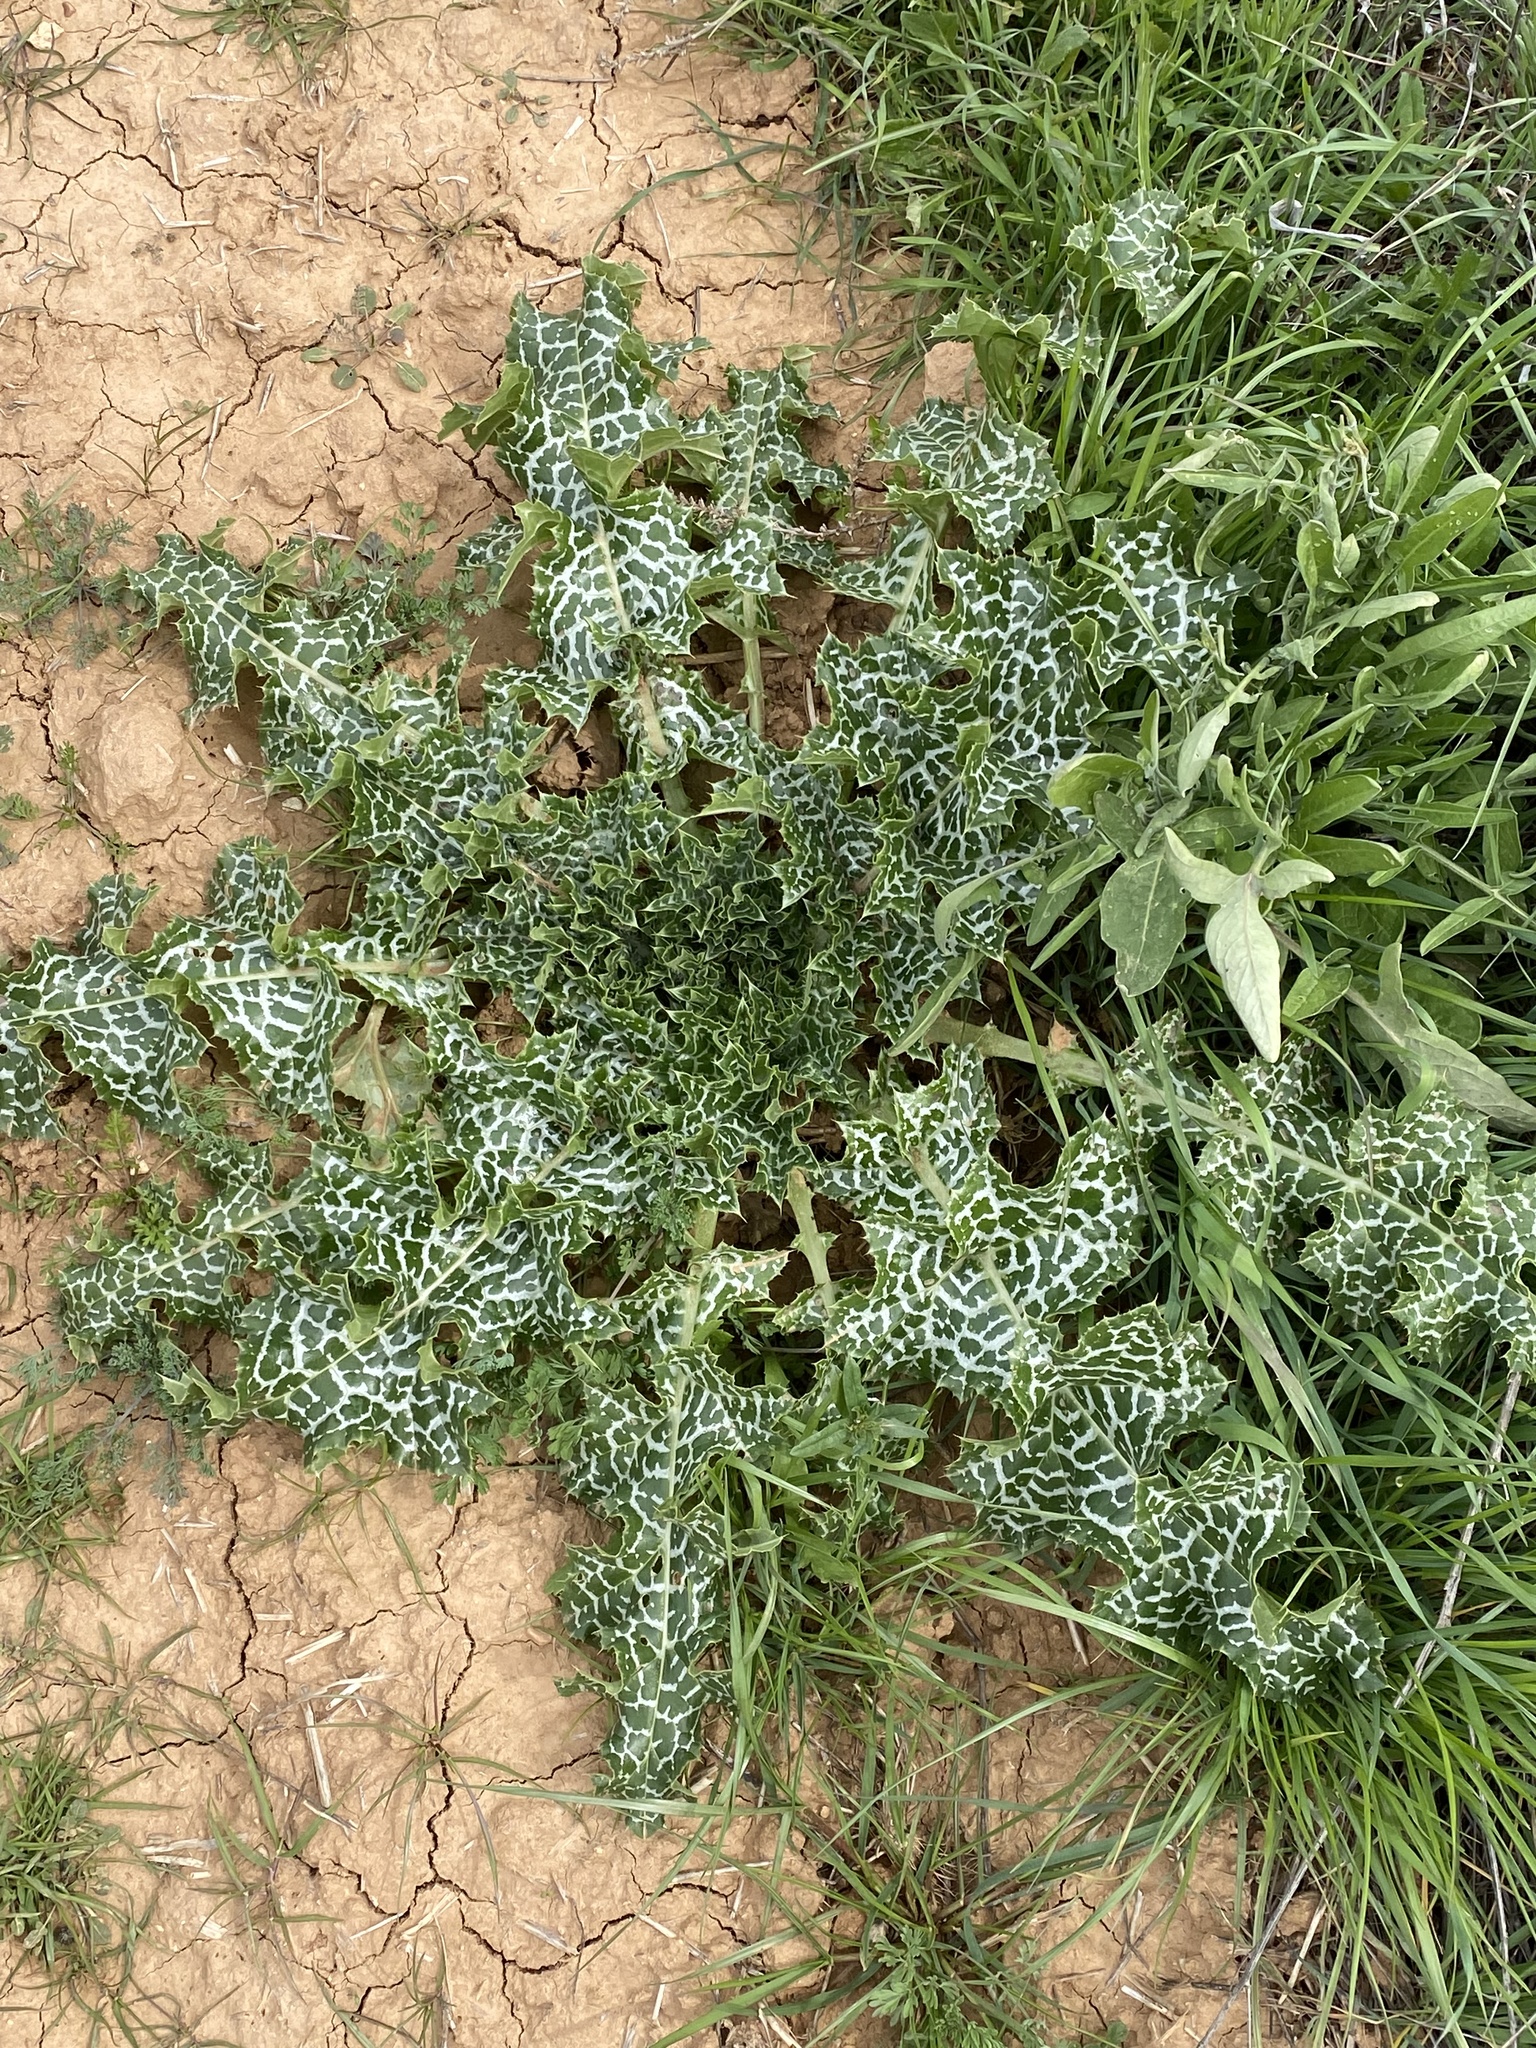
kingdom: Plantae
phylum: Tracheophyta
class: Magnoliopsida
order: Asterales
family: Asteraceae
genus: Silybum
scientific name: Silybum marianum
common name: Milk thistle
